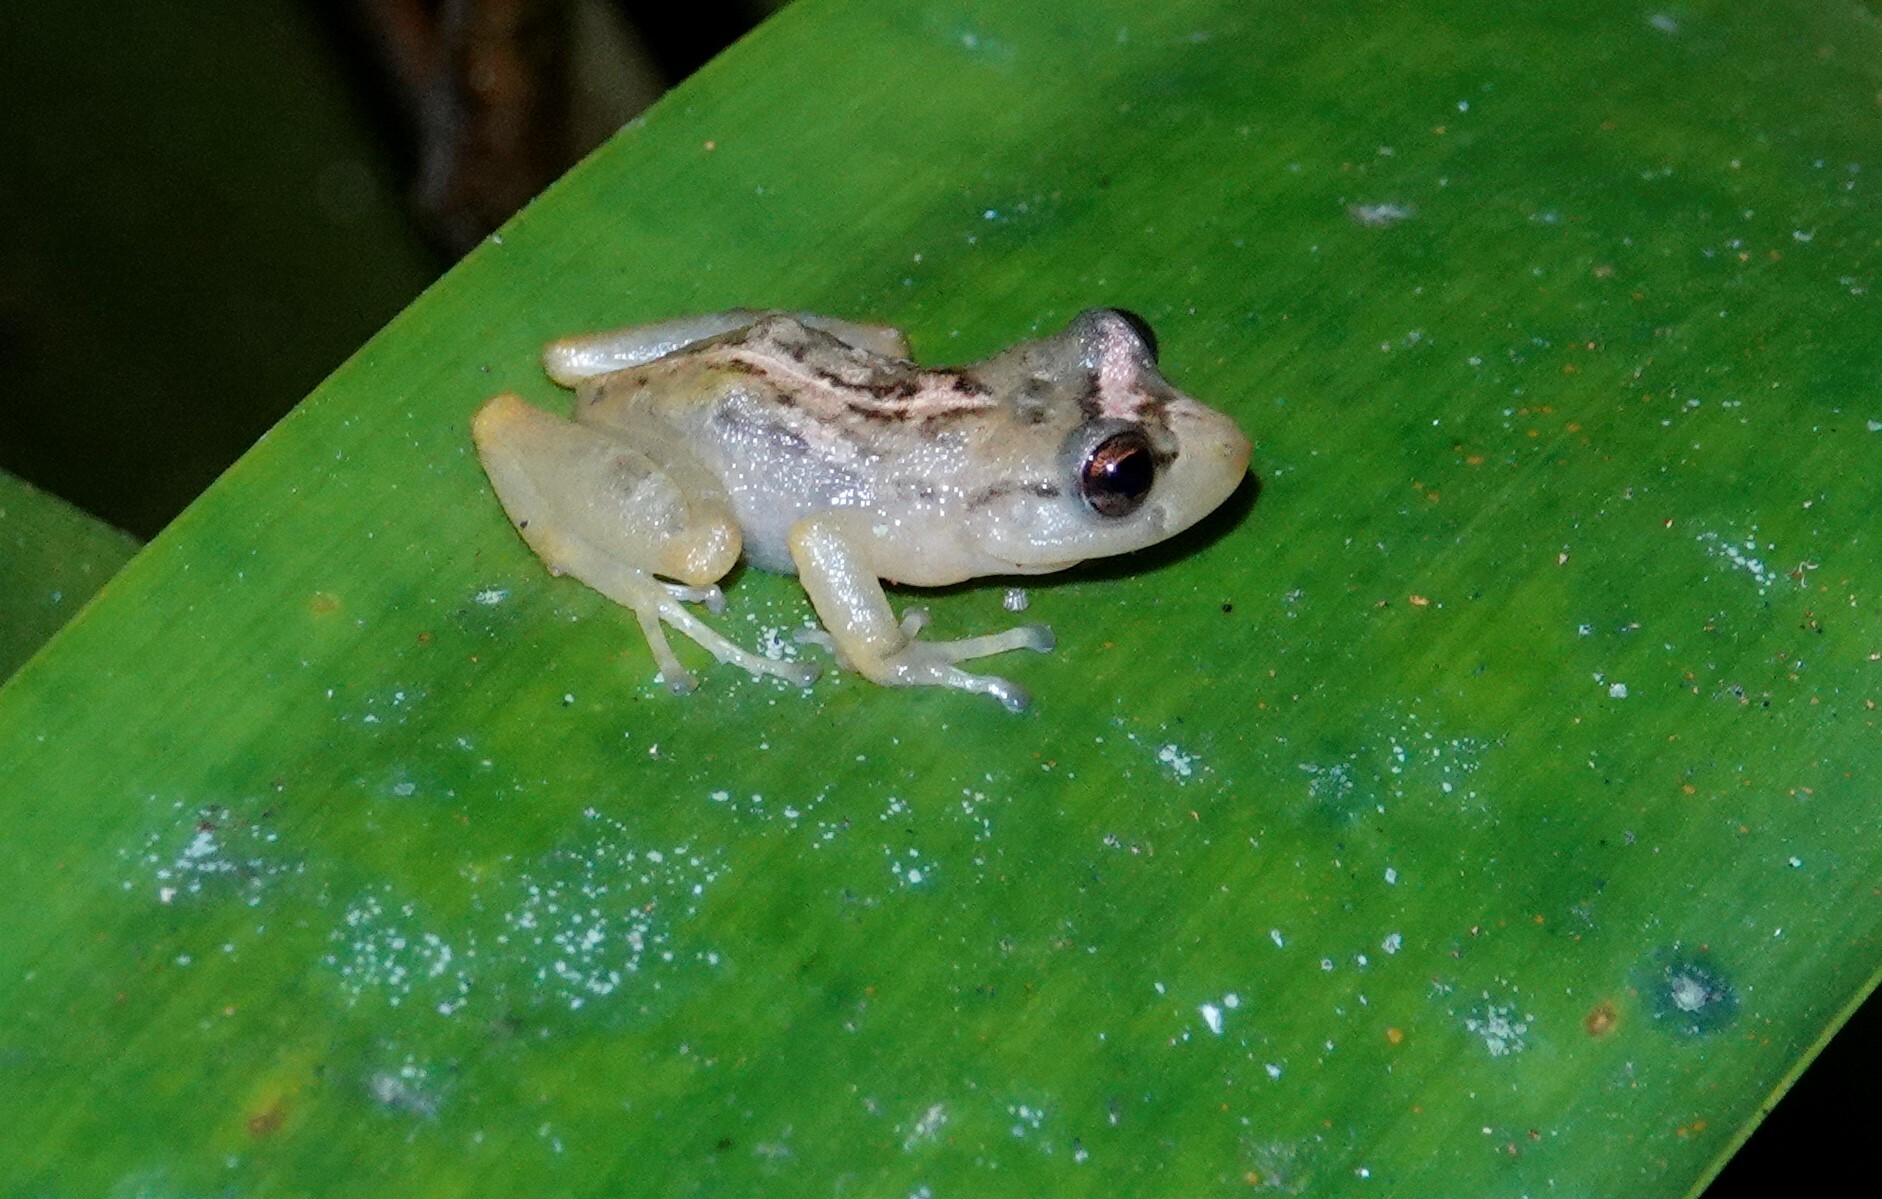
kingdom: Animalia
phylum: Chordata
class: Amphibia
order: Anura
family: Craugastoridae
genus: Tachiramantis
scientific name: Tachiramantis
